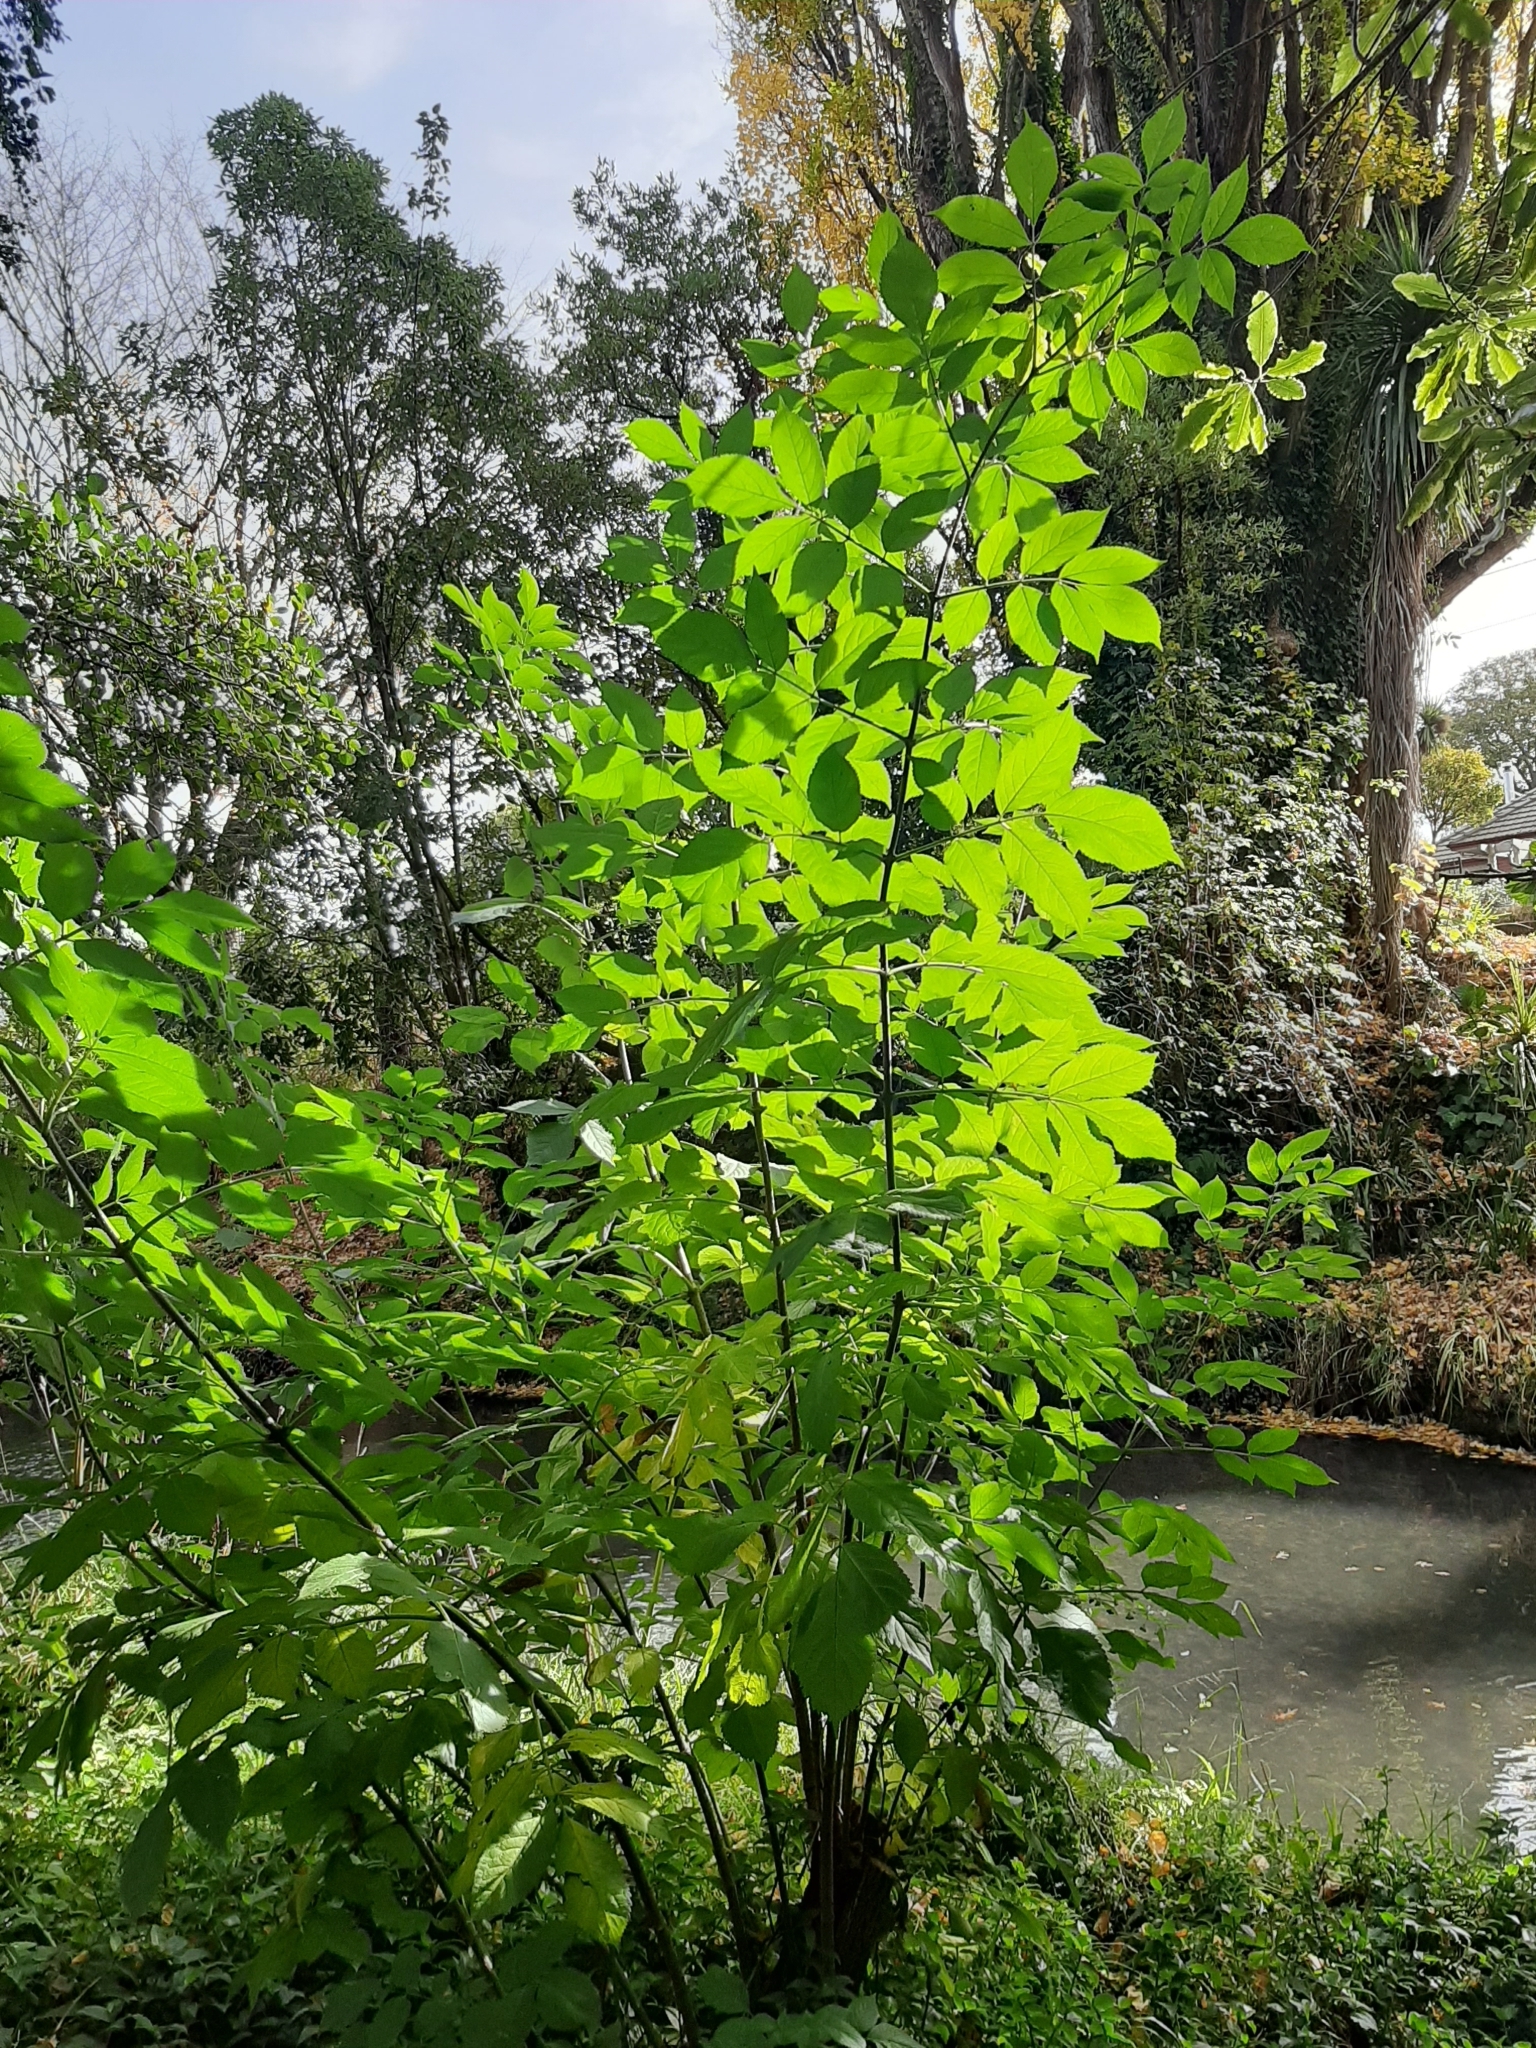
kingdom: Plantae
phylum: Tracheophyta
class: Magnoliopsida
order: Dipsacales
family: Viburnaceae
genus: Sambucus
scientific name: Sambucus nigra
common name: Elder
